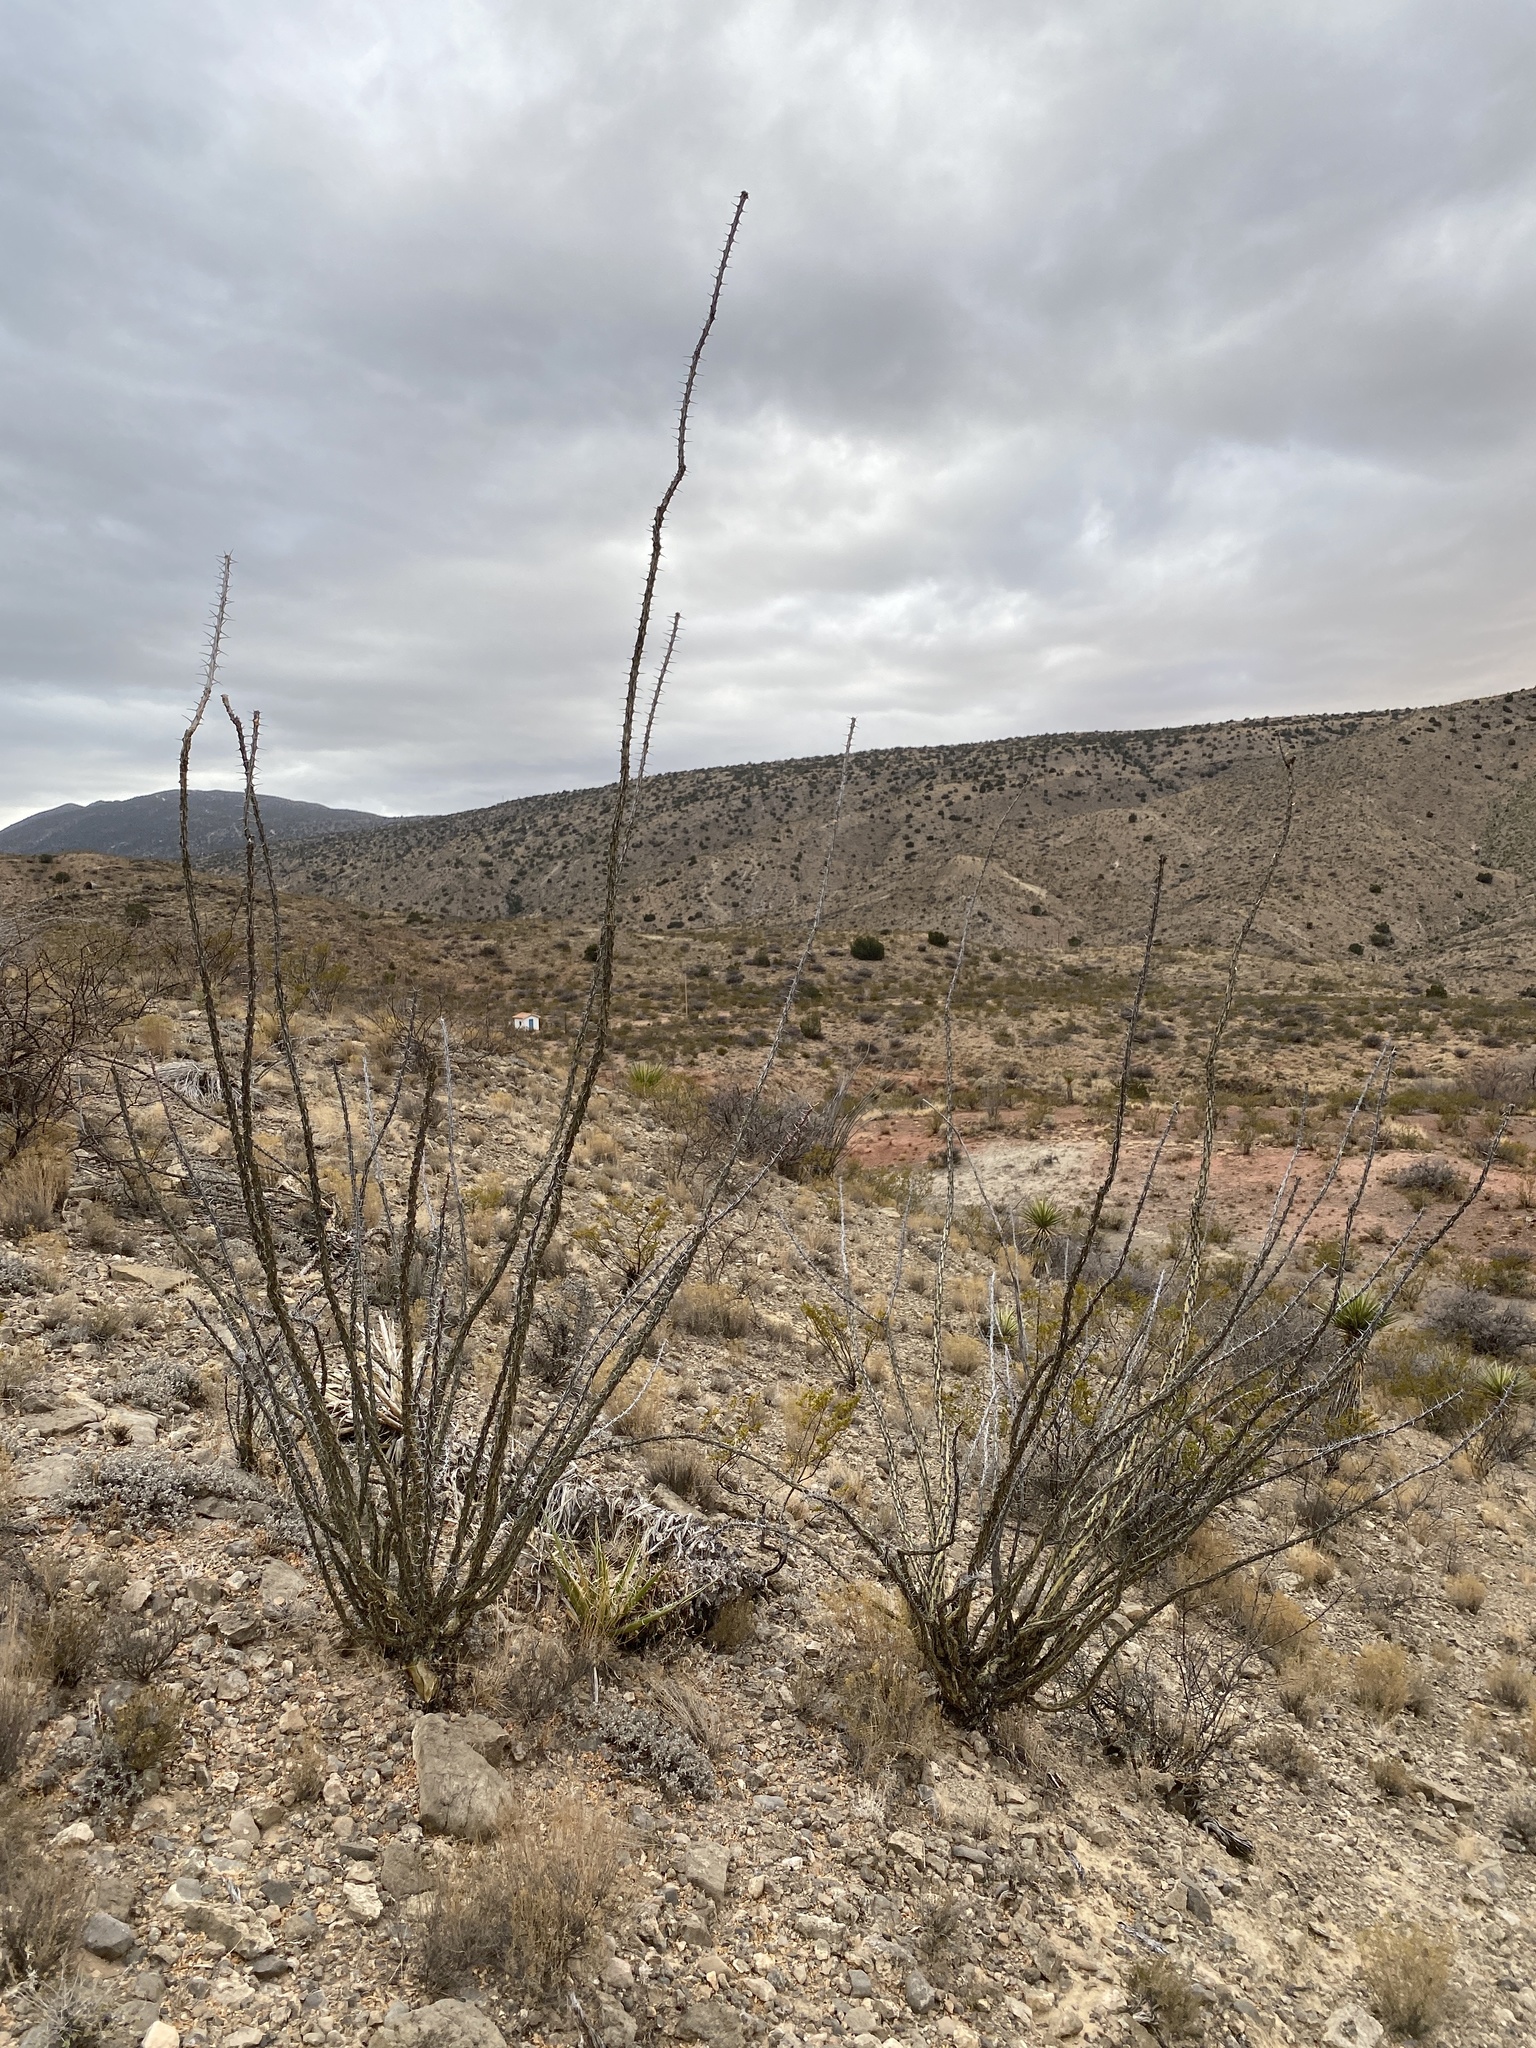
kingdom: Plantae
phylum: Tracheophyta
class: Magnoliopsida
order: Ericales
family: Fouquieriaceae
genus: Fouquieria
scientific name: Fouquieria splendens
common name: Vine-cactus
